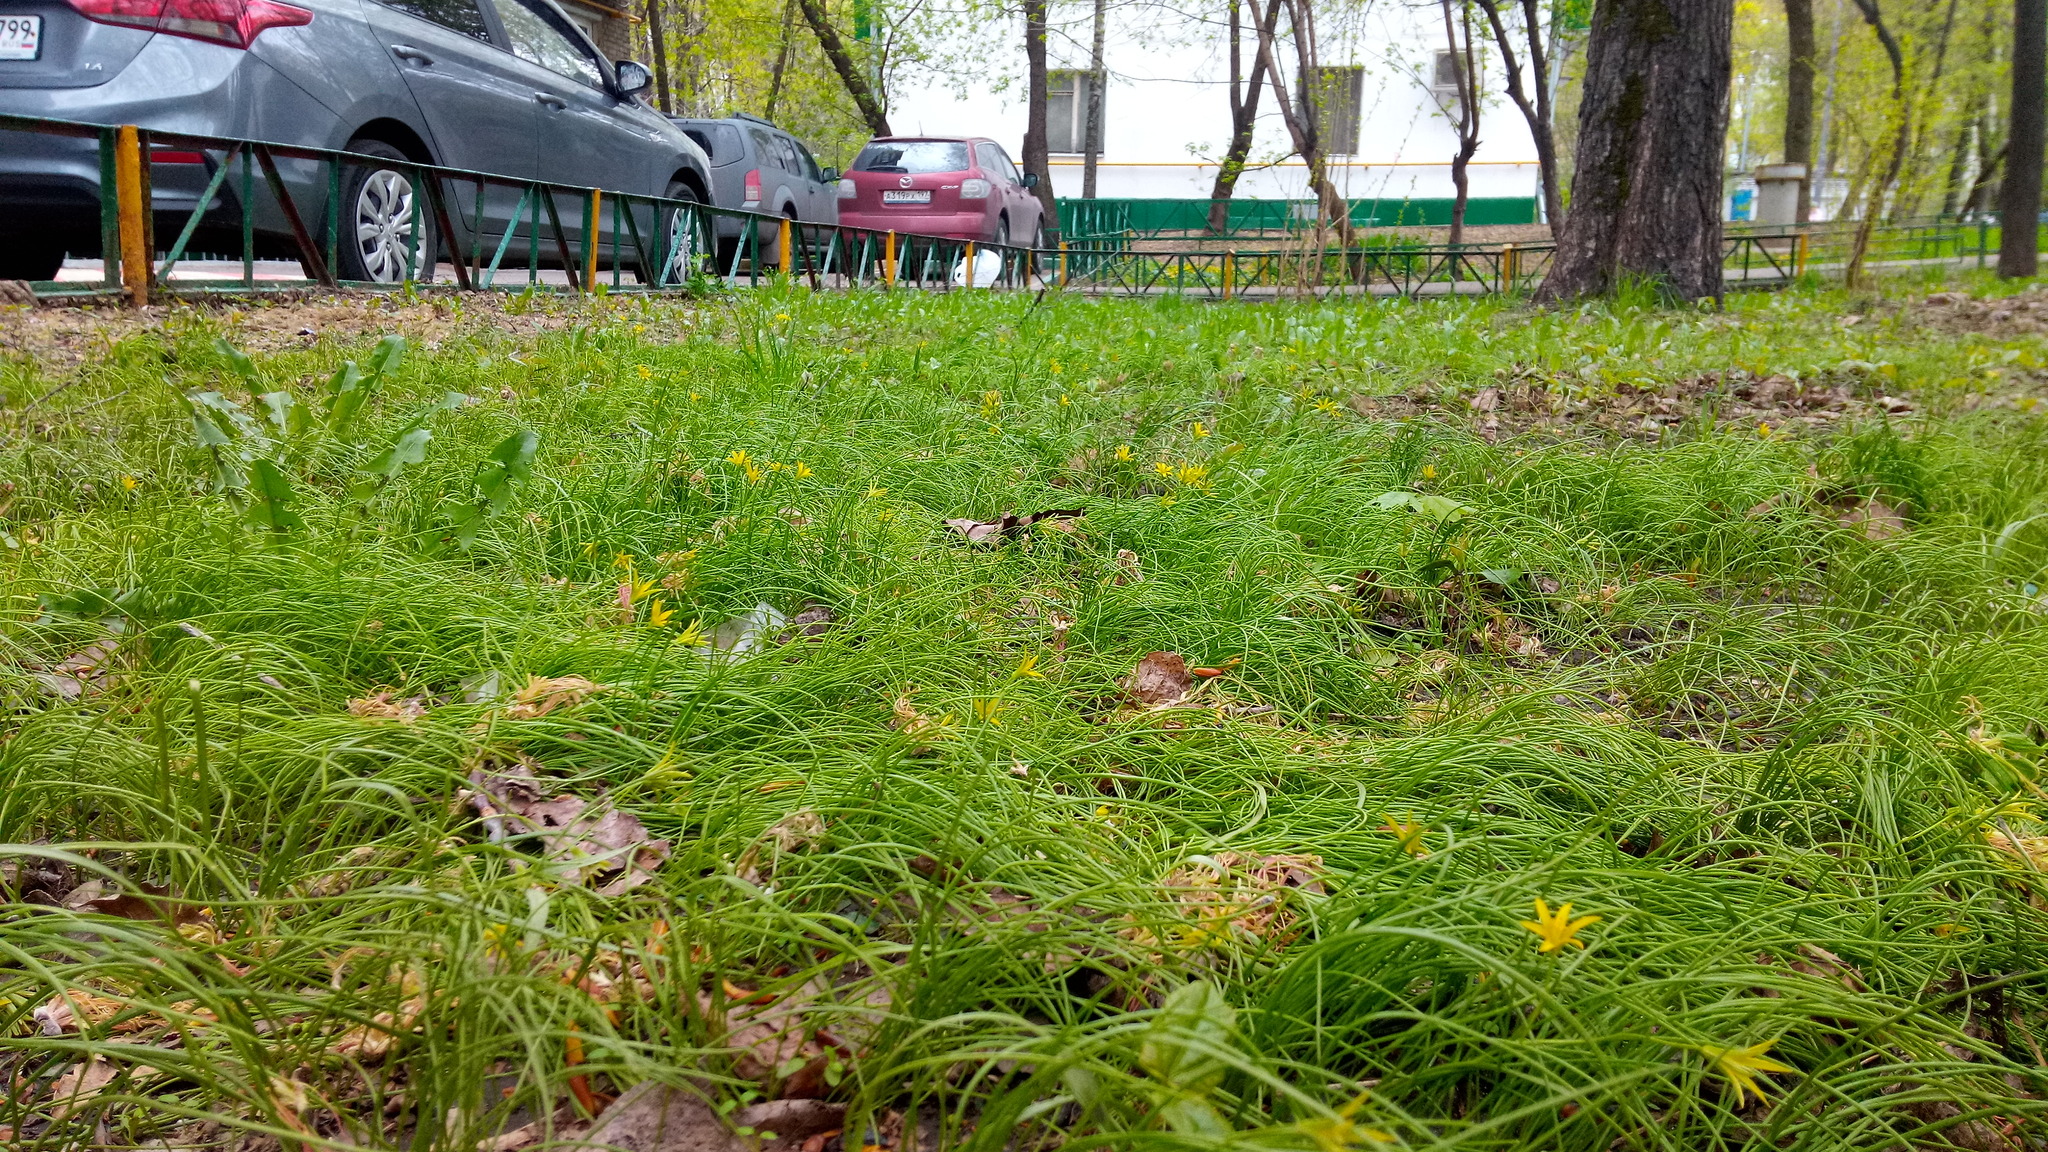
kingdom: Plantae
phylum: Tracheophyta
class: Liliopsida
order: Liliales
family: Liliaceae
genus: Gagea
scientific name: Gagea minima
